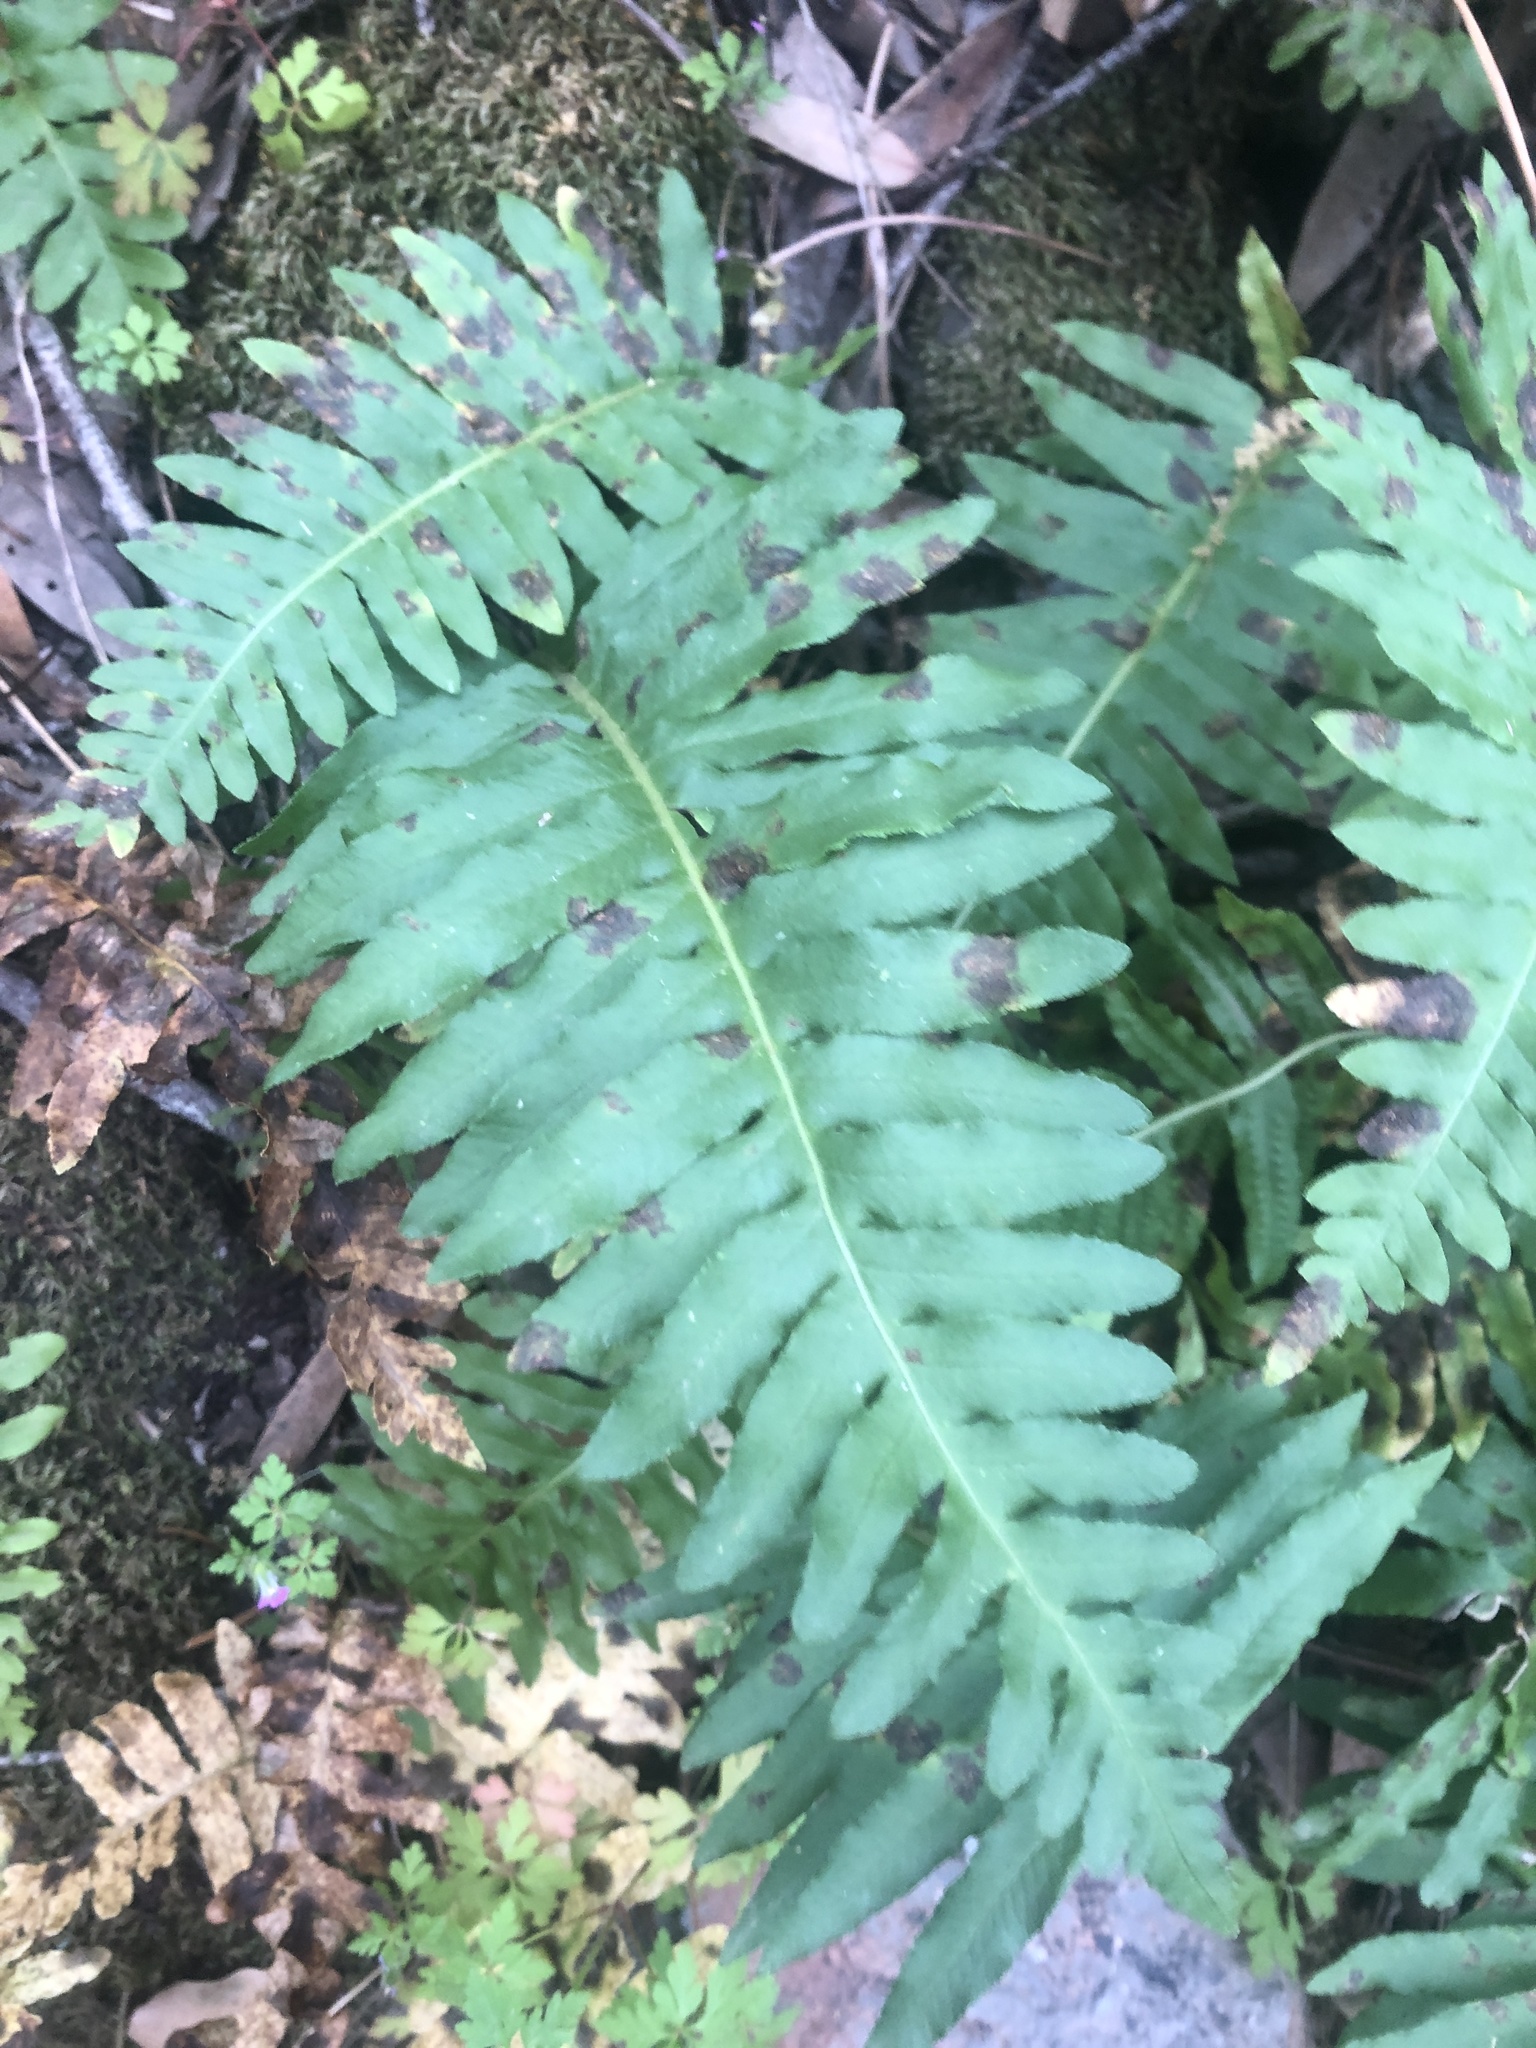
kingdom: Plantae
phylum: Tracheophyta
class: Polypodiopsida
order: Polypodiales
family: Polypodiaceae
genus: Polypodium
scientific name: Polypodium californicum
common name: California polypody
